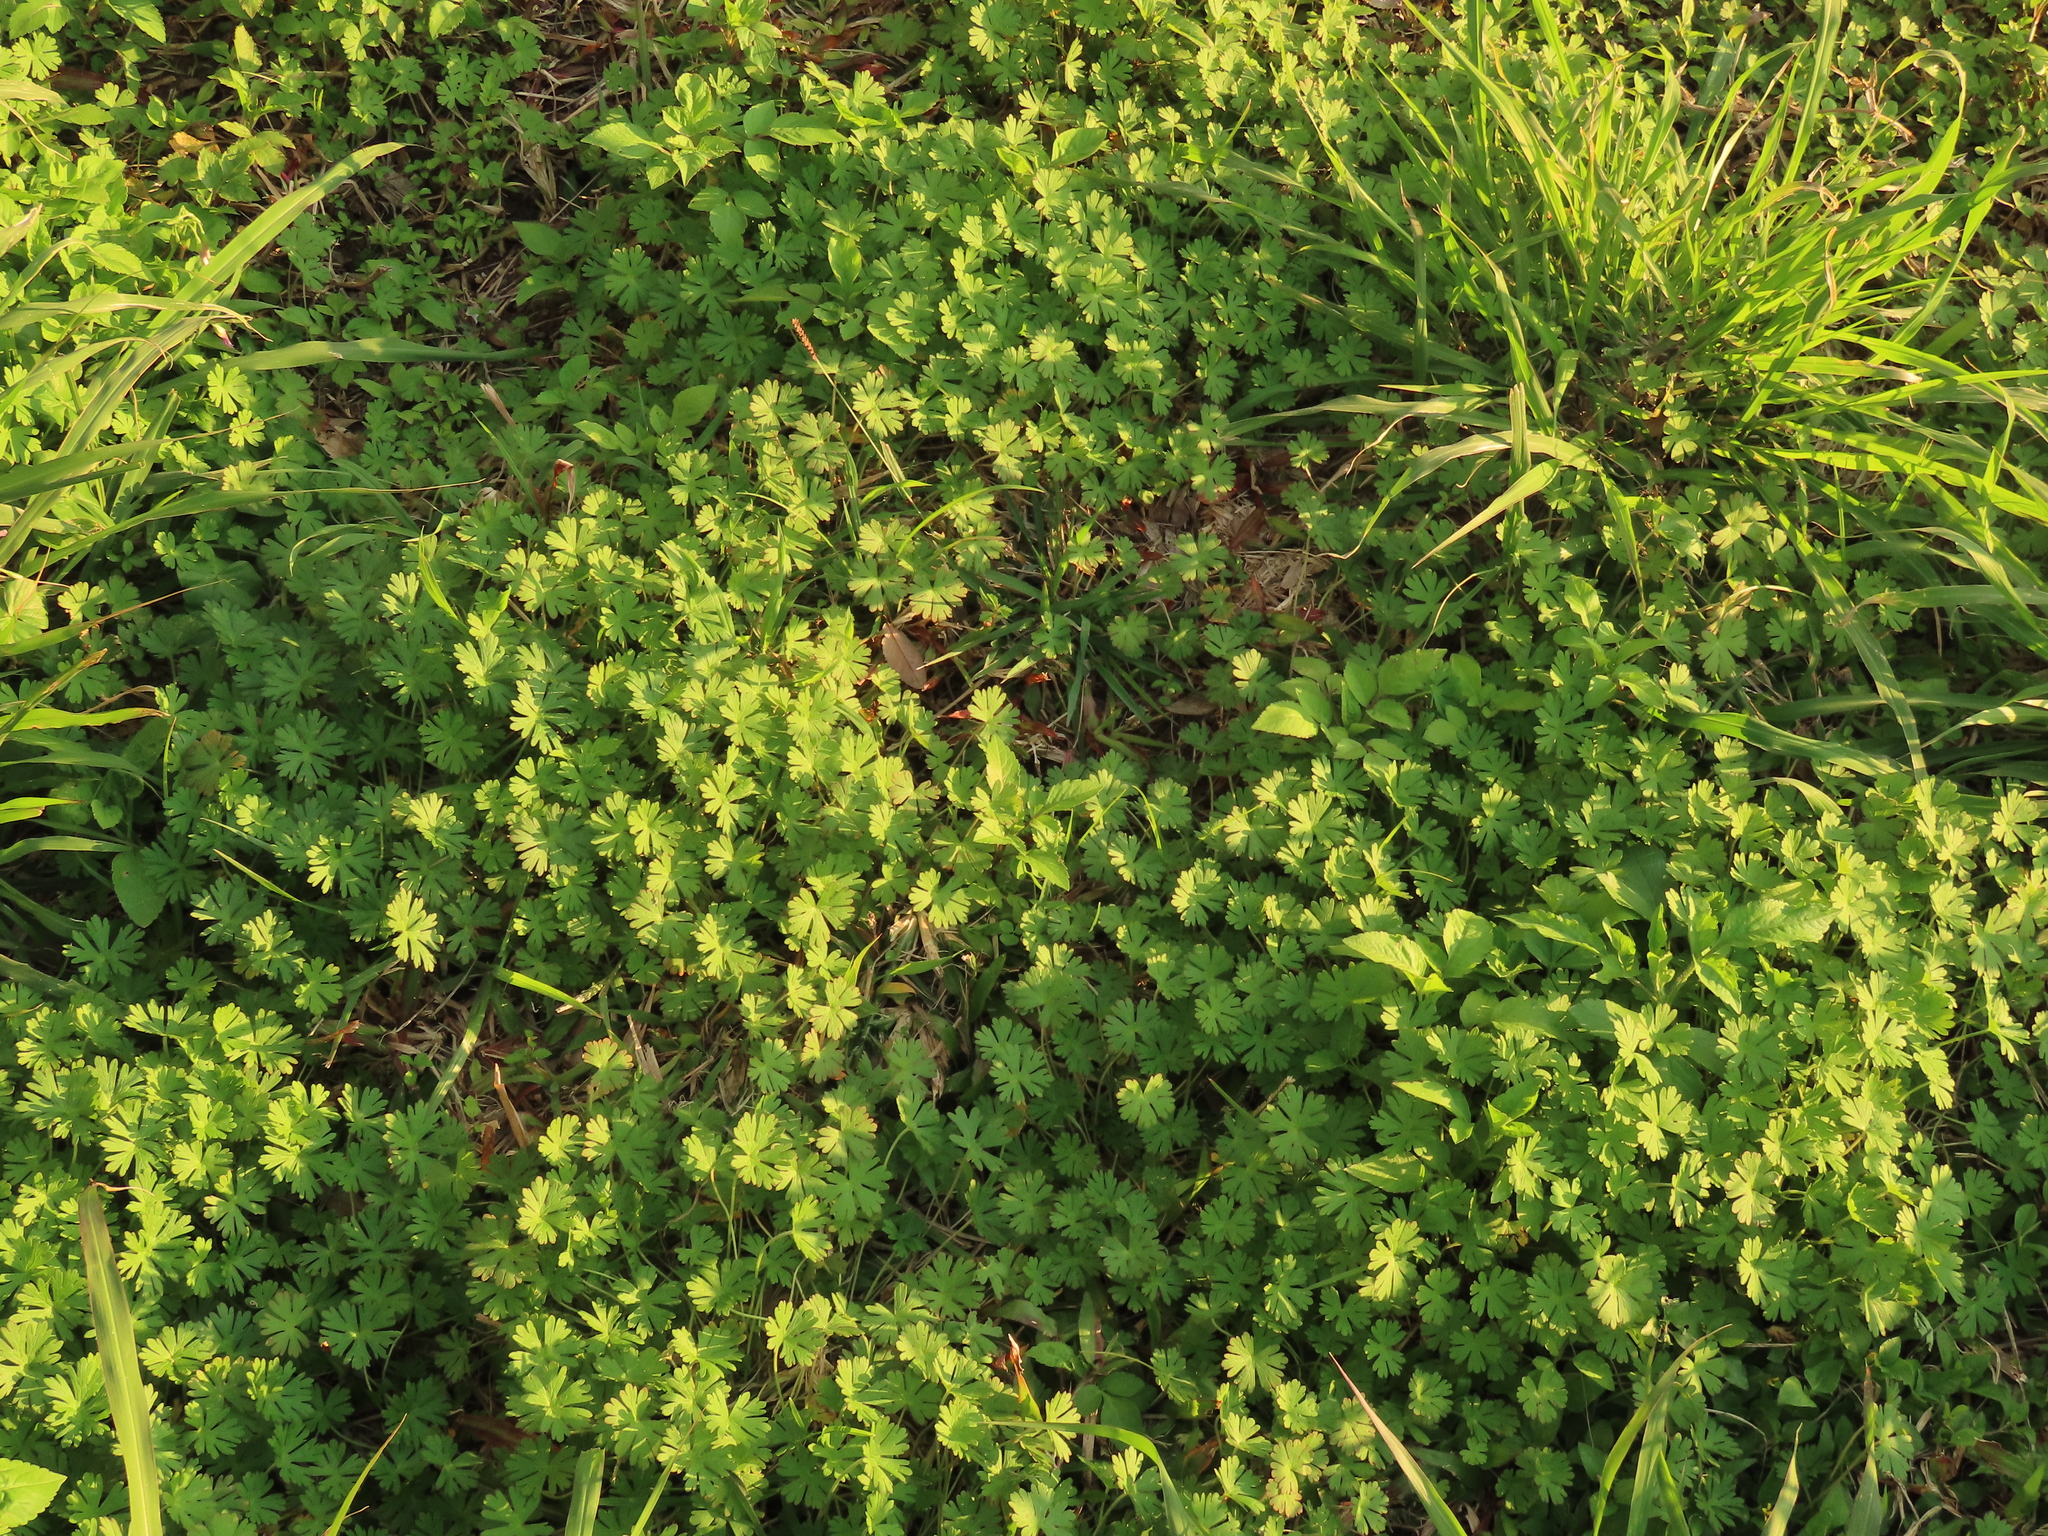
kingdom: Plantae
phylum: Tracheophyta
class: Magnoliopsida
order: Geraniales
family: Geraniaceae
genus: Geranium
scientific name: Geranium carolinianum
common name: Carolina crane's-bill
